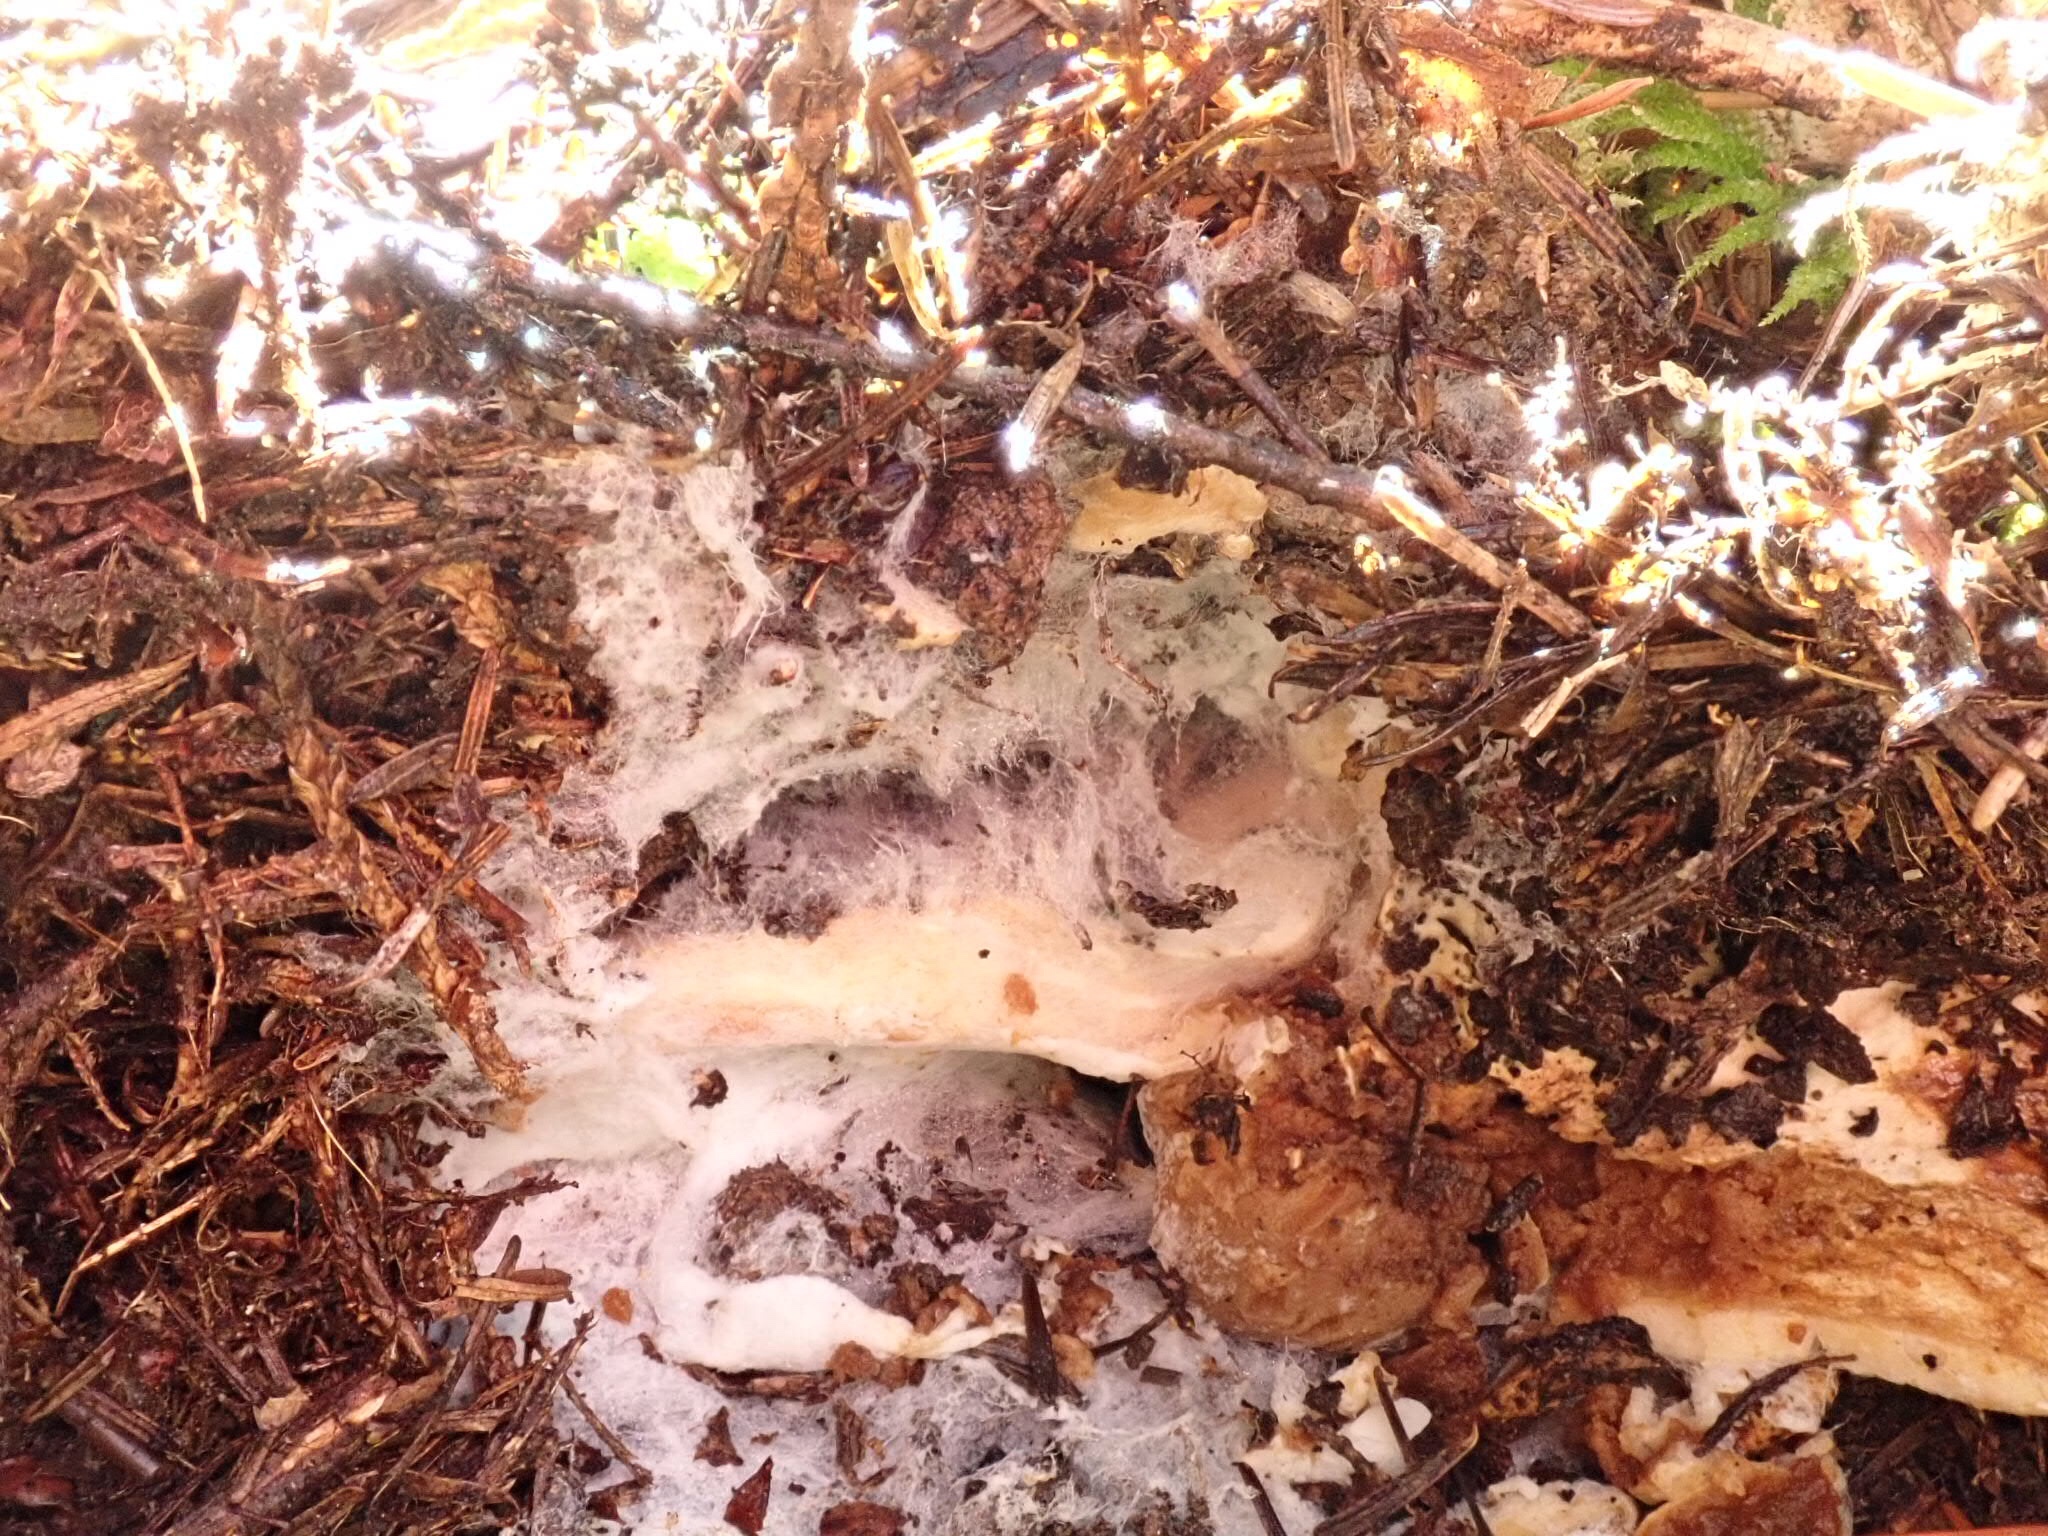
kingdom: Fungi
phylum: Basidiomycota
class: Agaricomycetes
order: Russulales
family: Russulaceae
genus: Russula
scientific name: Russula brevipes
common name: Short-stemmed russula
